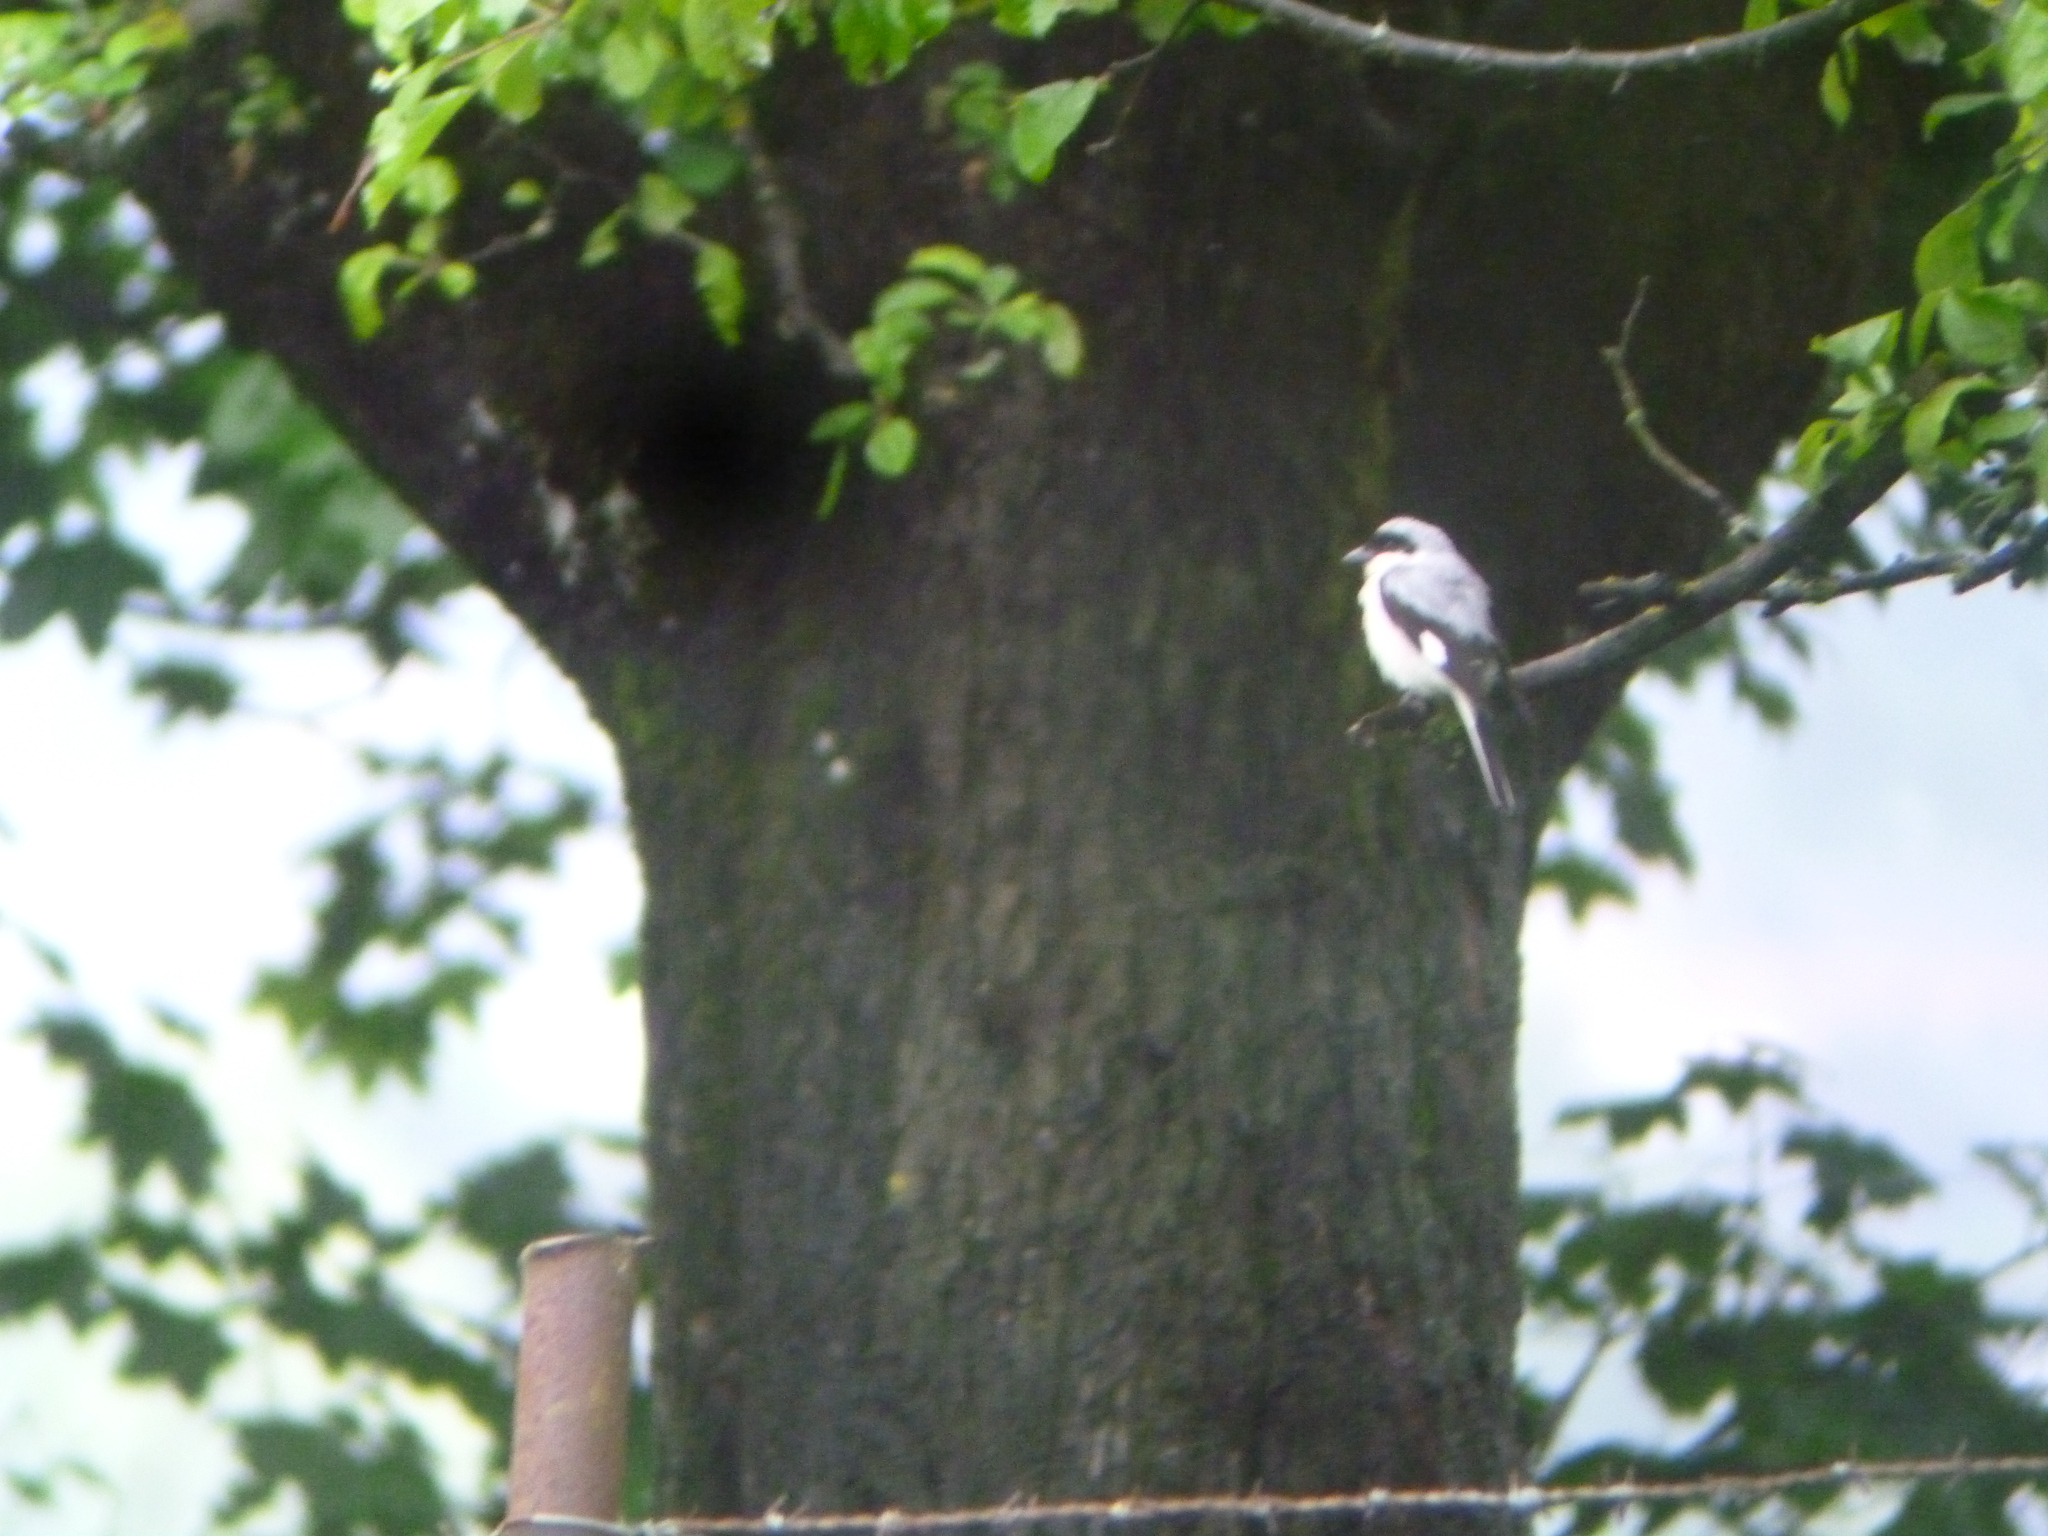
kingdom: Animalia
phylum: Chordata
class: Aves
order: Passeriformes
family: Laniidae
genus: Lanius
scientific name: Lanius excubitor
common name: Great grey shrike
